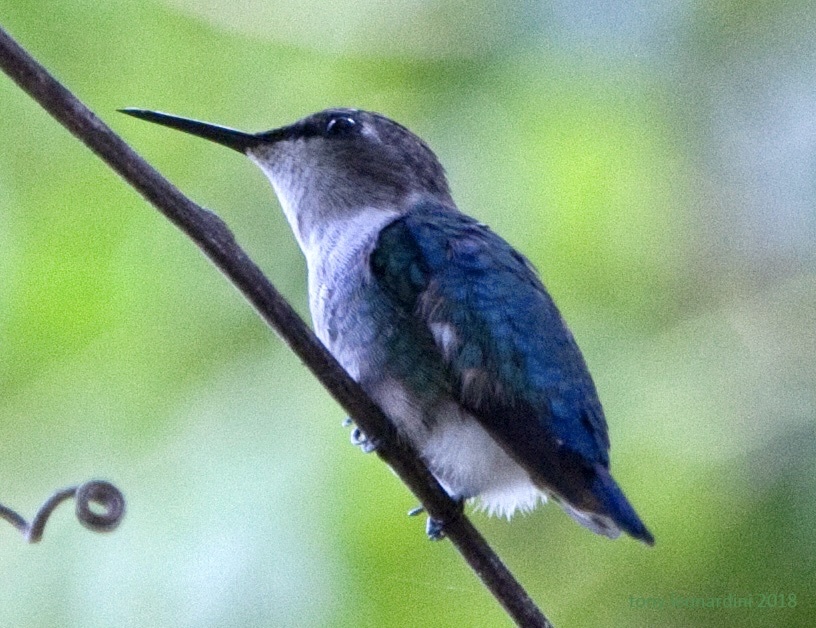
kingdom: Animalia
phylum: Chordata
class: Aves
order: Apodiformes
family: Trochilidae
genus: Mellisuga
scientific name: Mellisuga helenae
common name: Bee hummingbird
